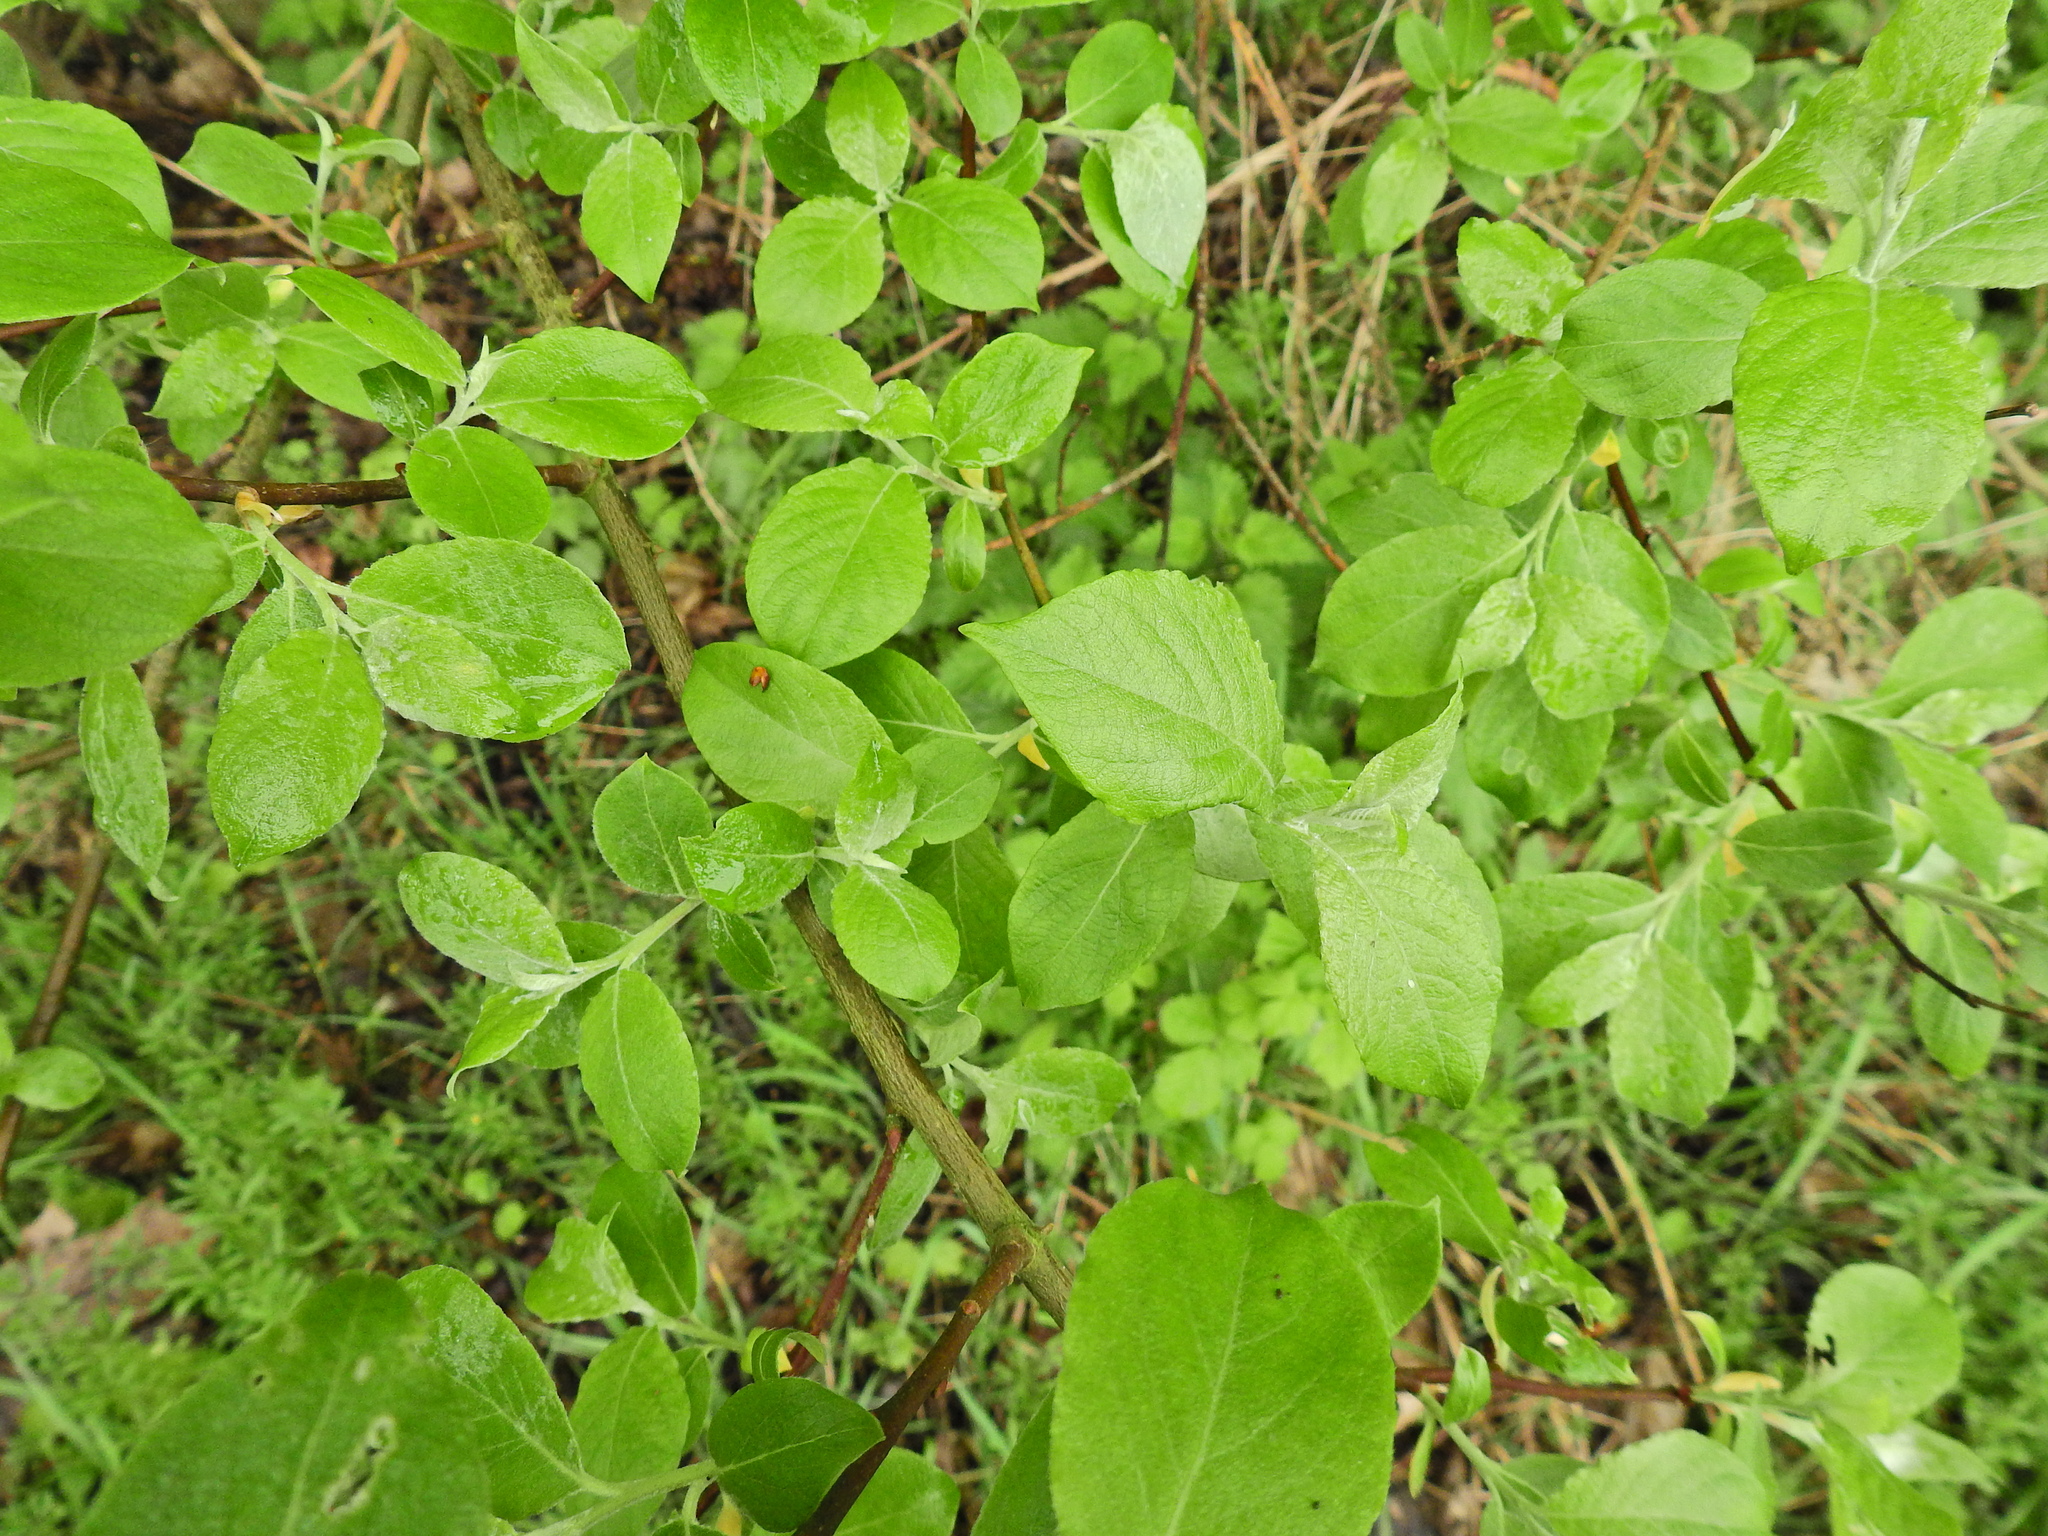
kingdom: Plantae
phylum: Tracheophyta
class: Magnoliopsida
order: Malpighiales
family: Salicaceae
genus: Salix
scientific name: Salix caprea
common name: Goat willow
